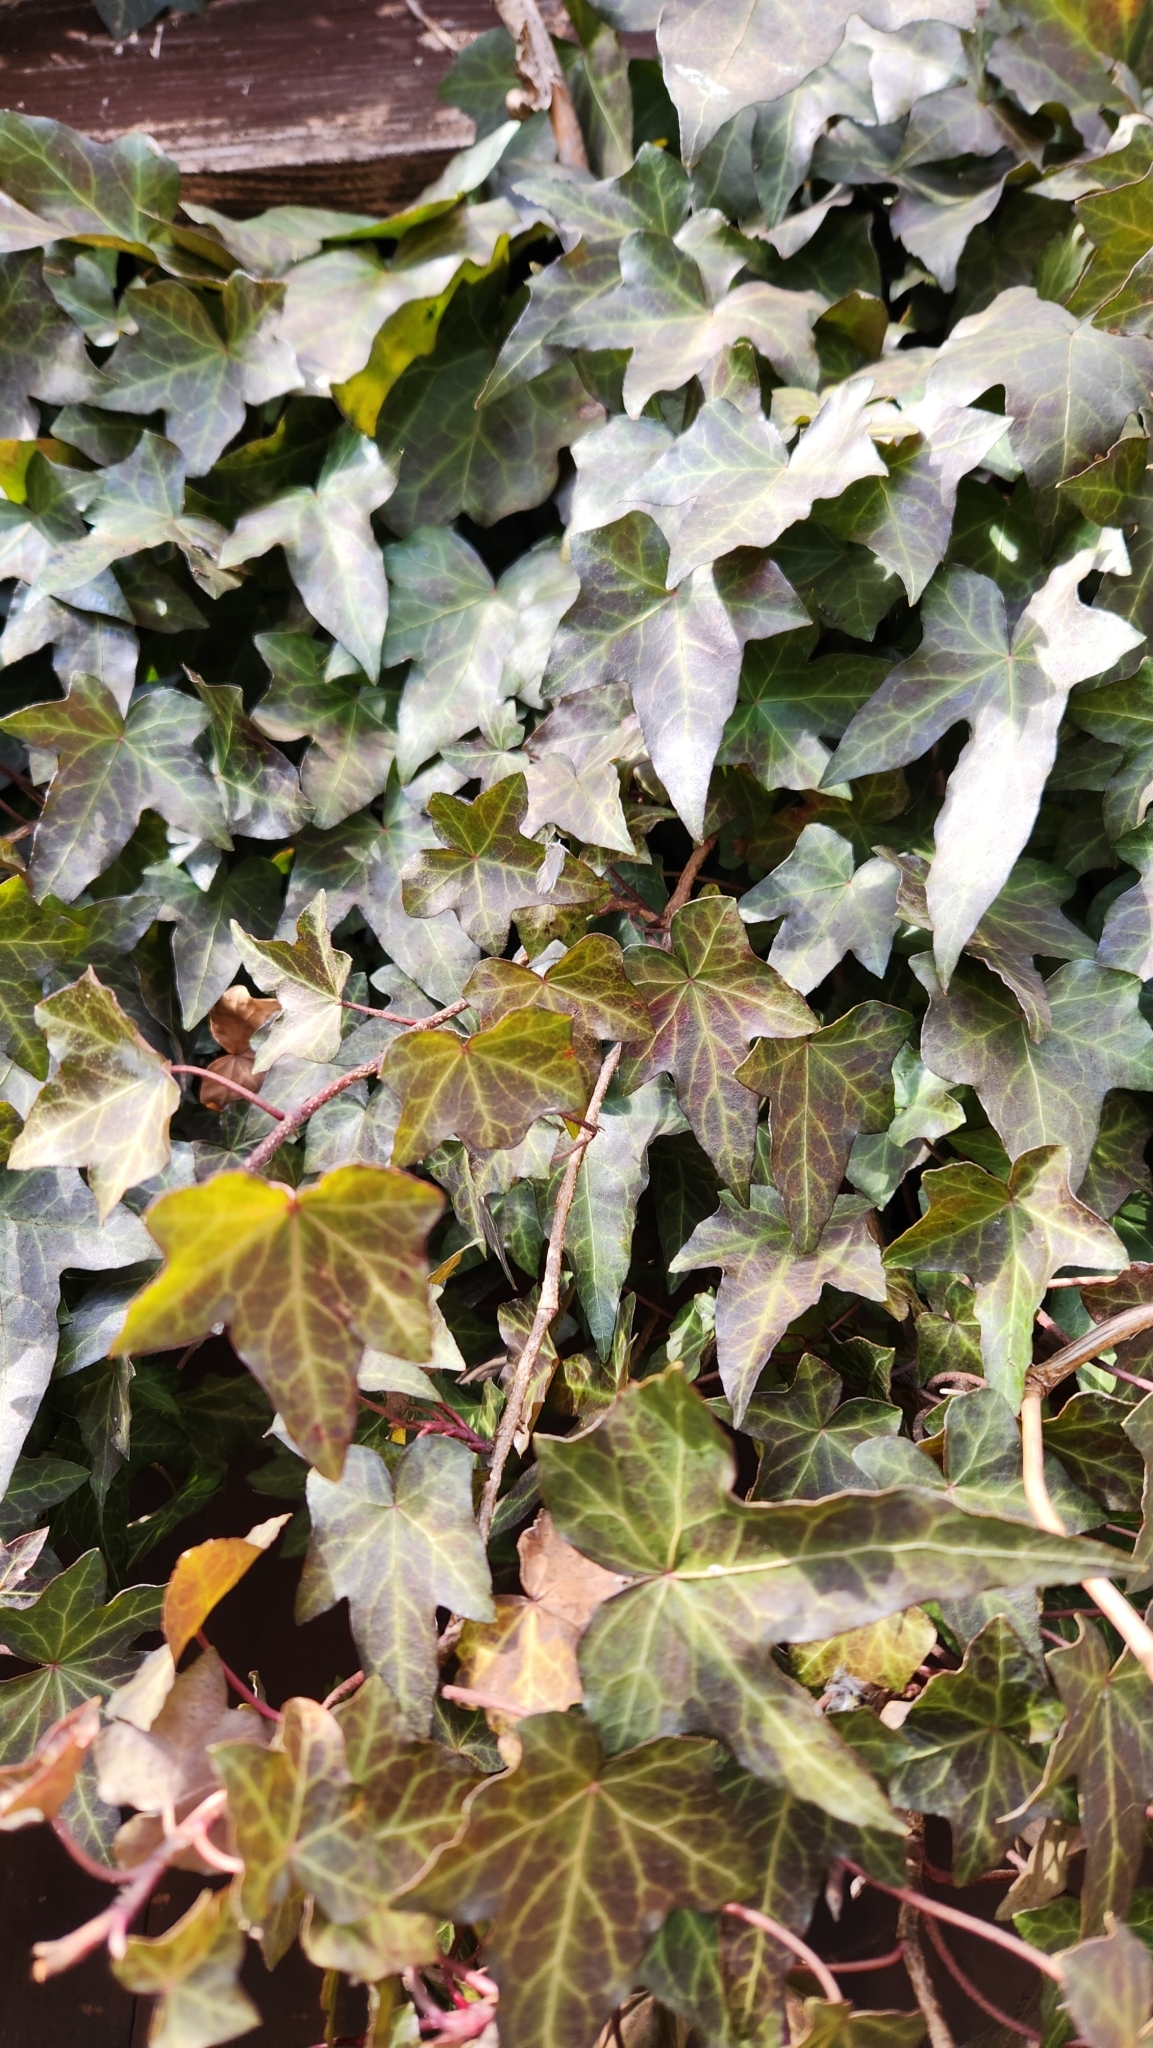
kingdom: Plantae
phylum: Tracheophyta
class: Magnoliopsida
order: Apiales
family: Araliaceae
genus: Hedera
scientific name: Hedera helix
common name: Ivy
